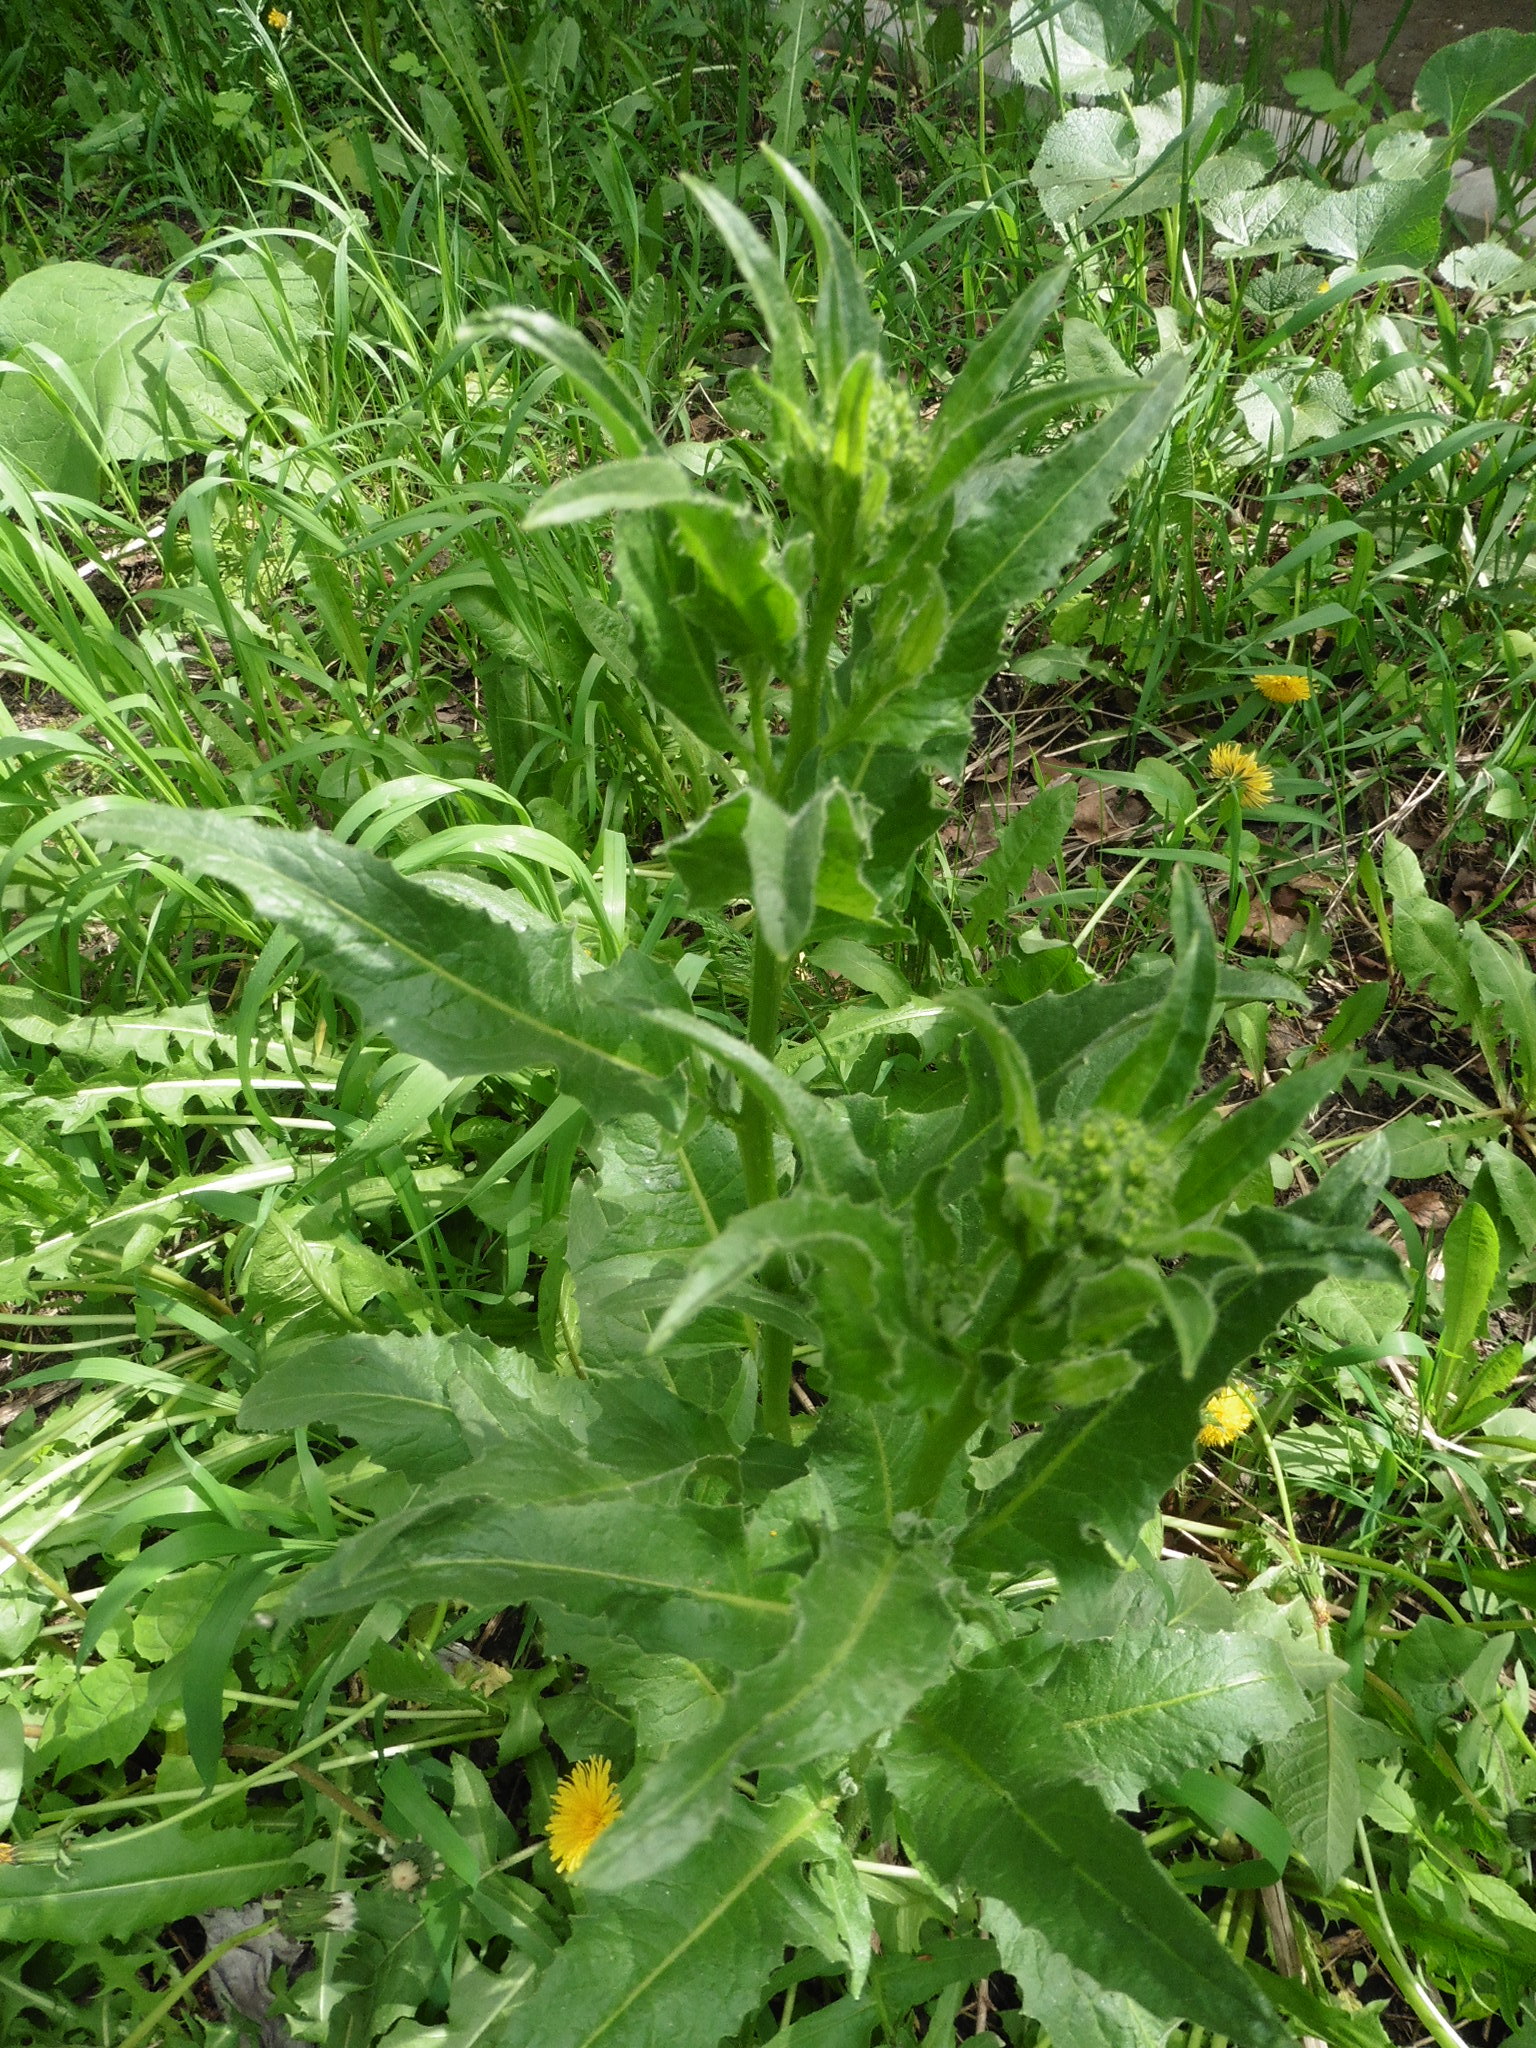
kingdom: Plantae
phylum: Tracheophyta
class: Magnoliopsida
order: Brassicales
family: Brassicaceae
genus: Bunias
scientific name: Bunias orientalis
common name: Warty-cabbage
